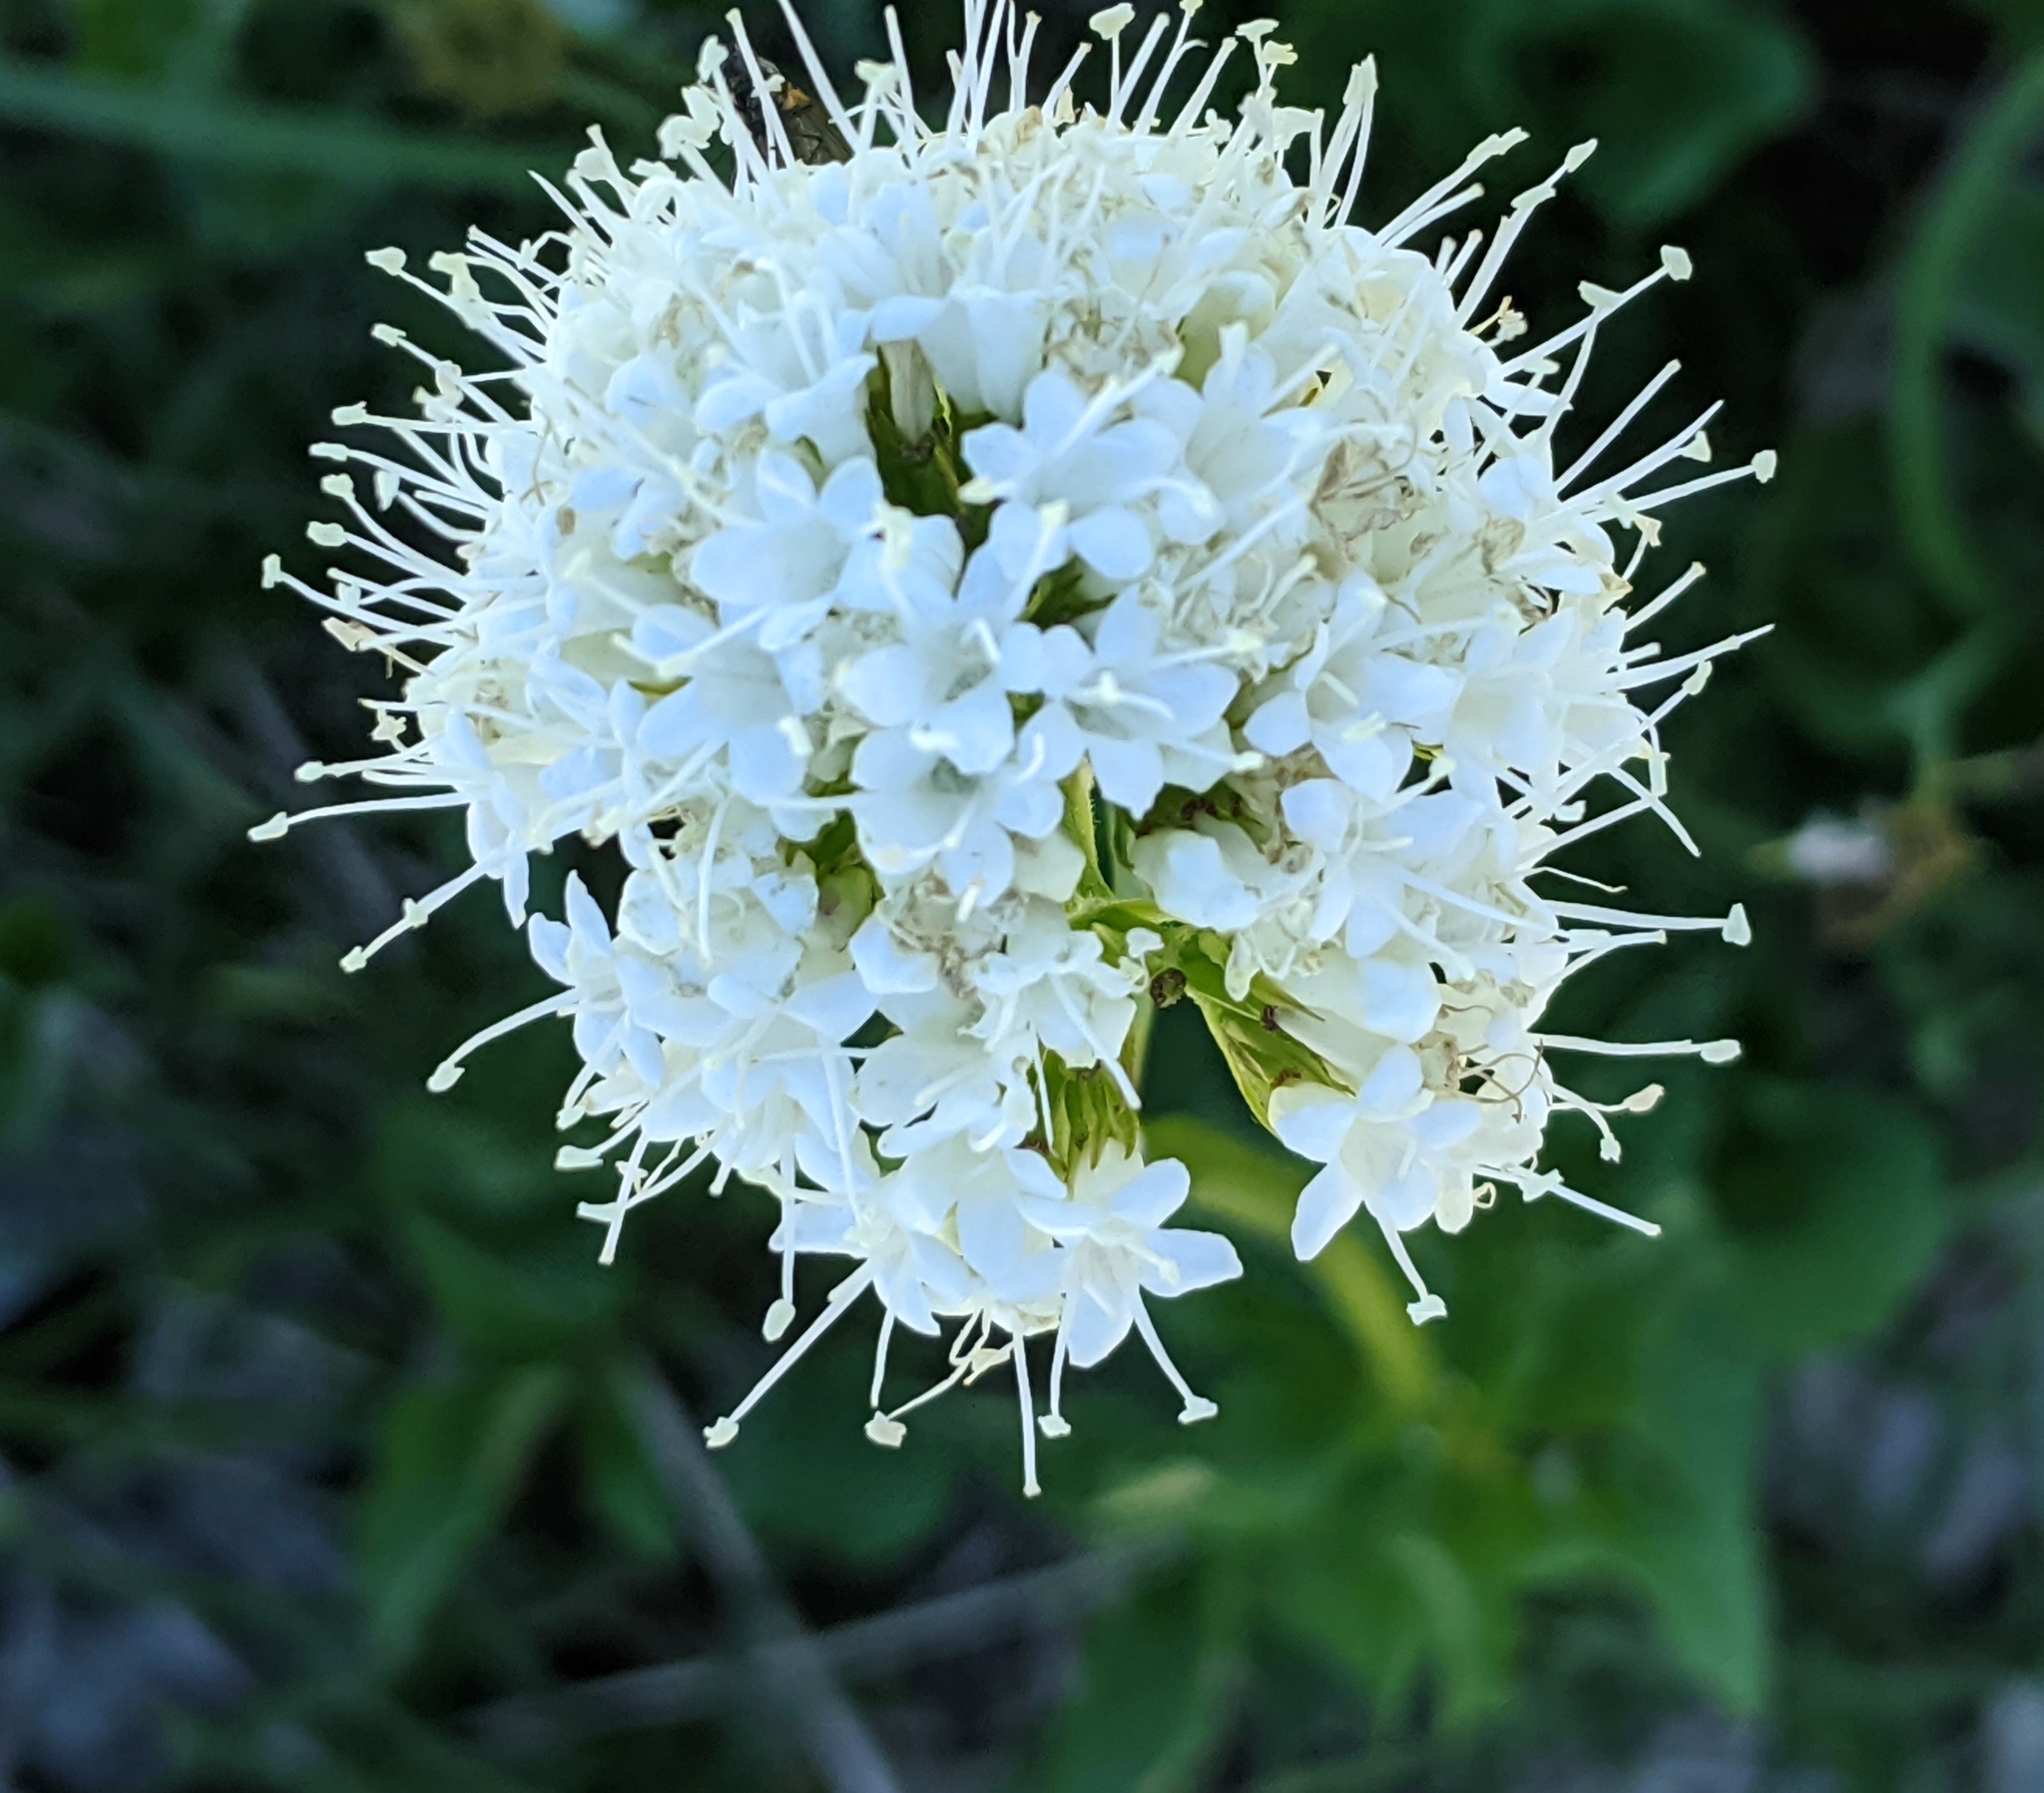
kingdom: Plantae
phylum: Tracheophyta
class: Magnoliopsida
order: Dipsacales
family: Caprifoliaceae
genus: Valeriana
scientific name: Valeriana sitchensis
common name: Pacific valerian
